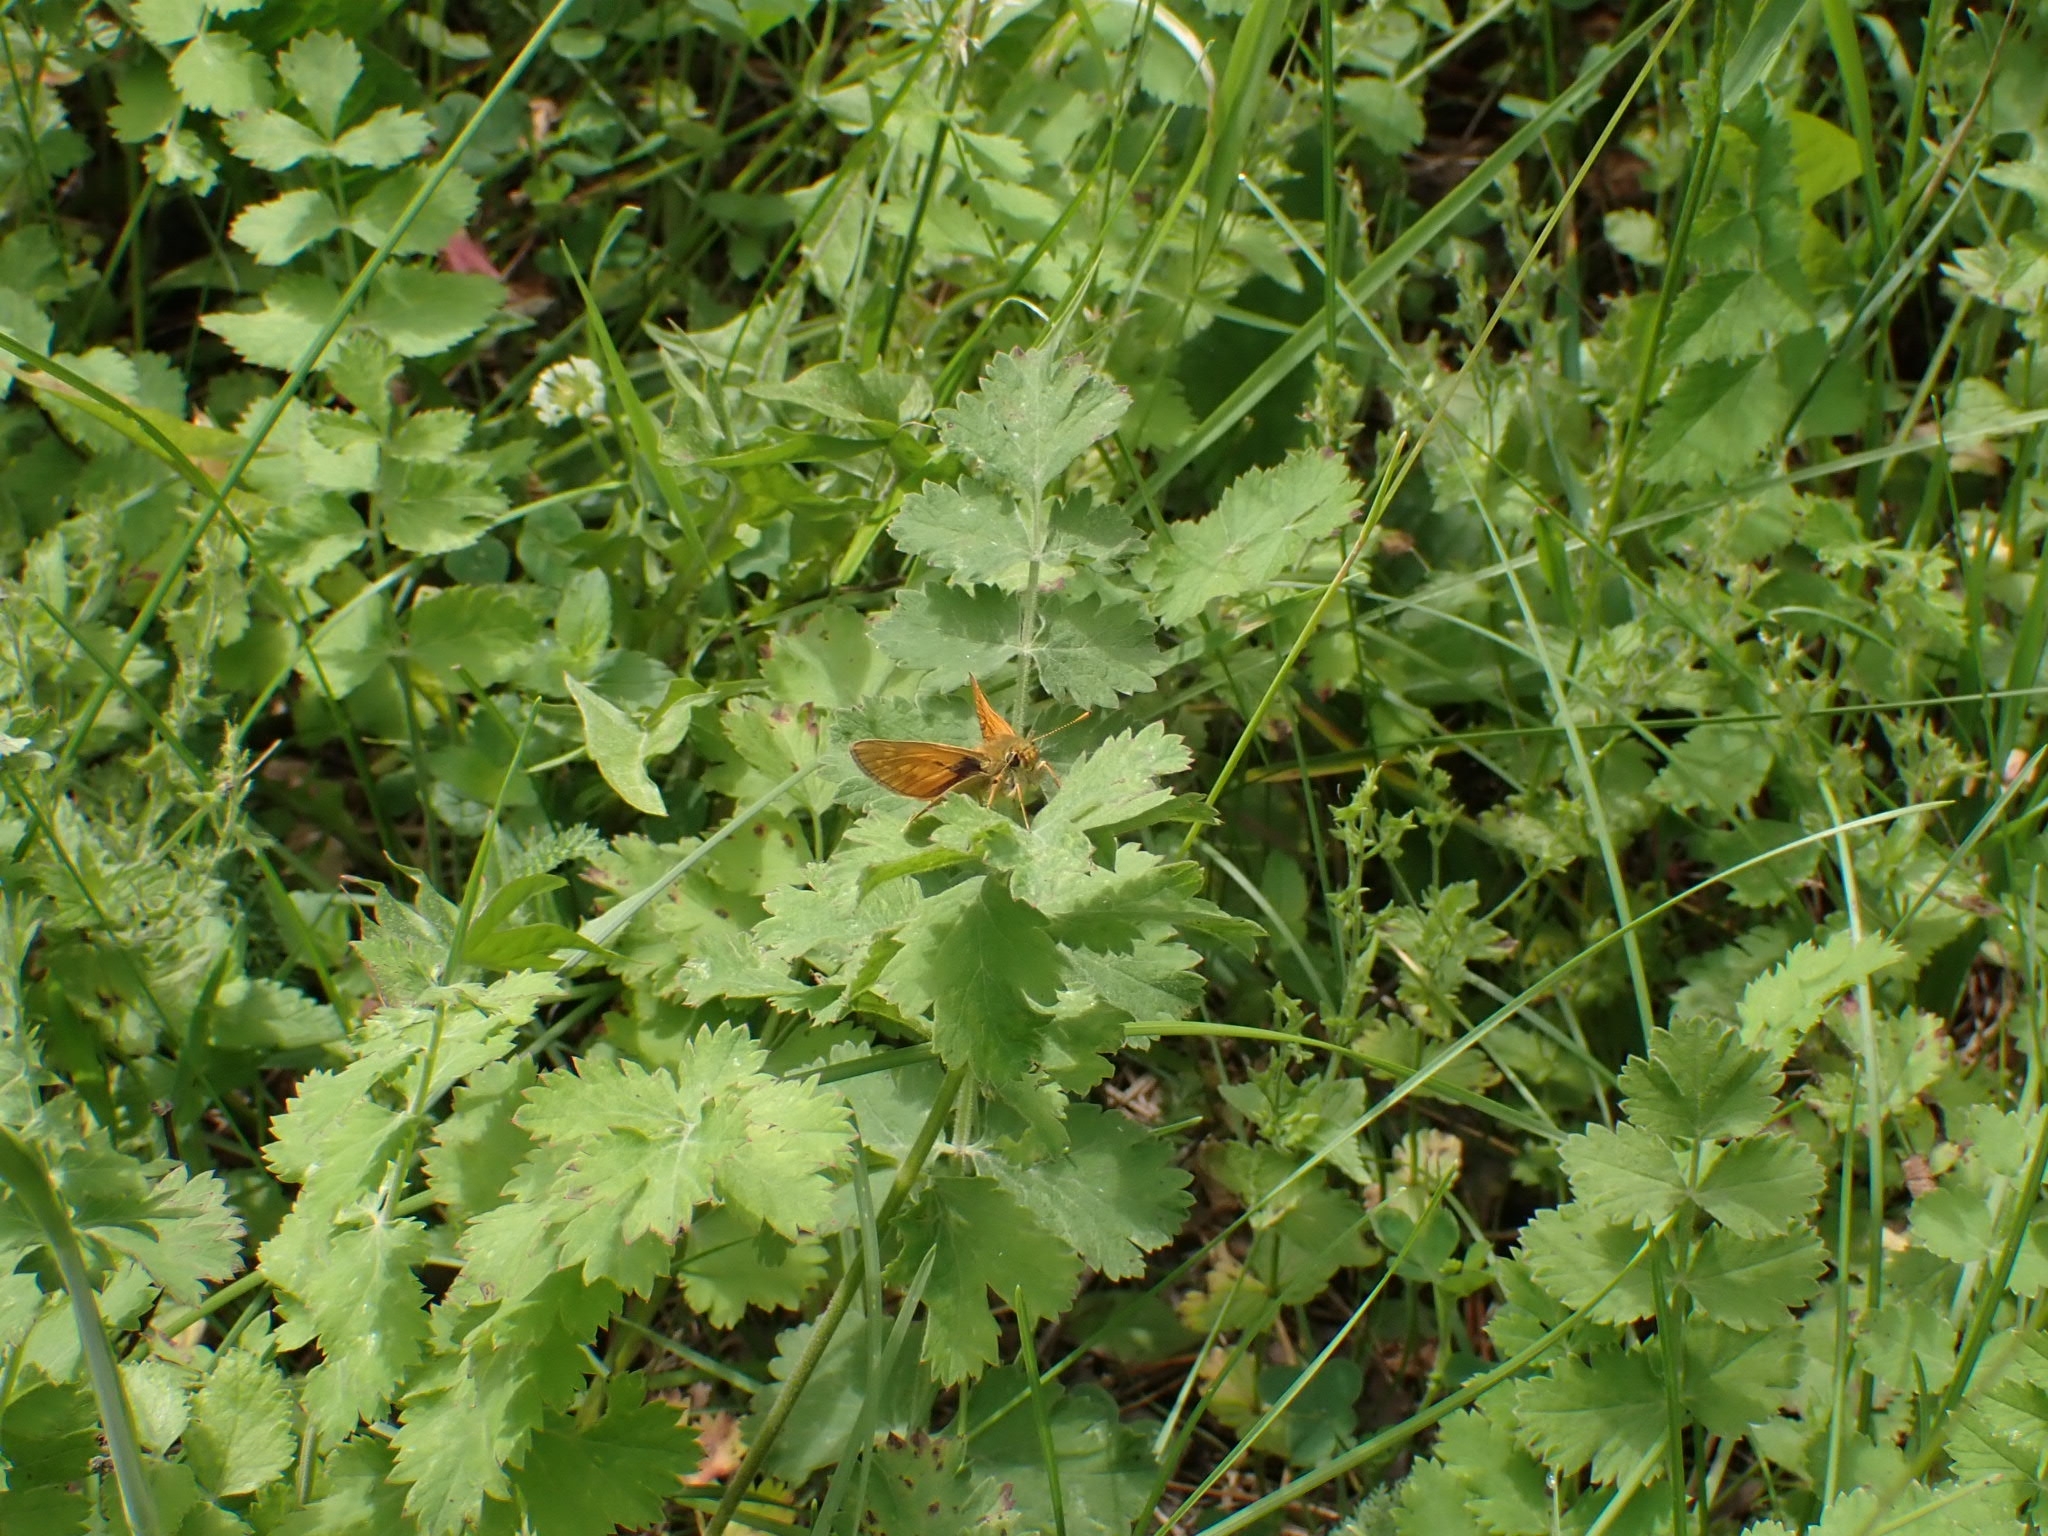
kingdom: Animalia
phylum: Arthropoda
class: Insecta
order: Lepidoptera
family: Hesperiidae
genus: Ochlodes
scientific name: Ochlodes venata
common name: Large skipper
